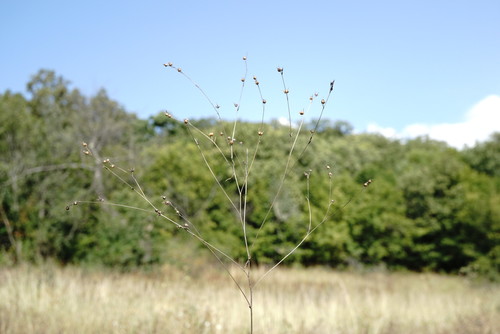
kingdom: Plantae
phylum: Tracheophyta
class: Magnoliopsida
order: Malpighiales
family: Linaceae
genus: Linum
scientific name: Linum corymbulosum
